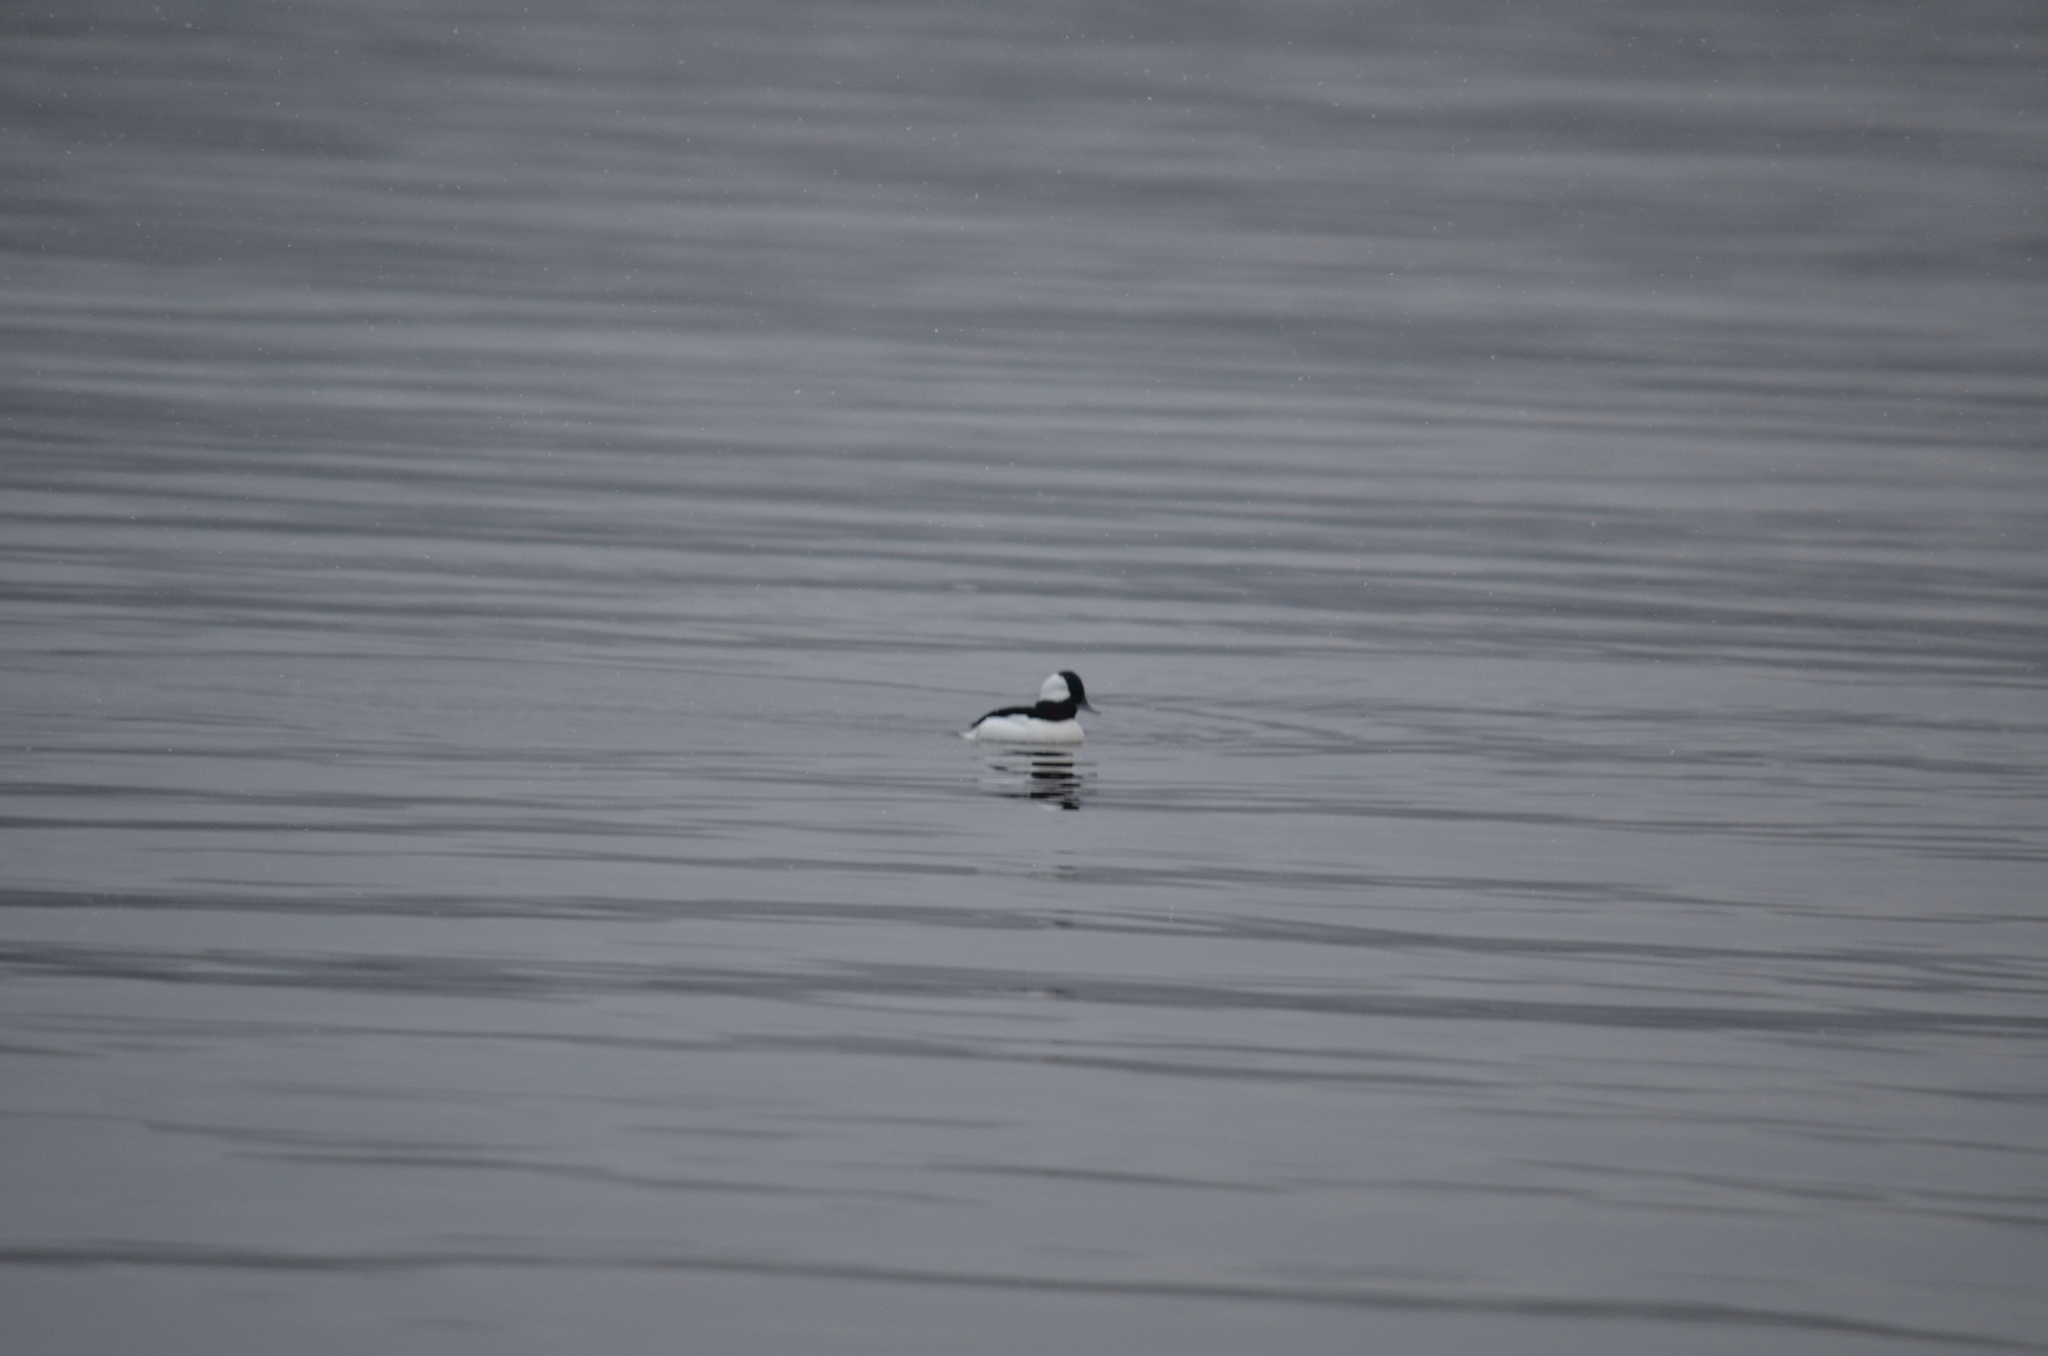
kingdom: Animalia
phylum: Chordata
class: Aves
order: Anseriformes
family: Anatidae
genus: Bucephala
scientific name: Bucephala albeola
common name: Bufflehead
